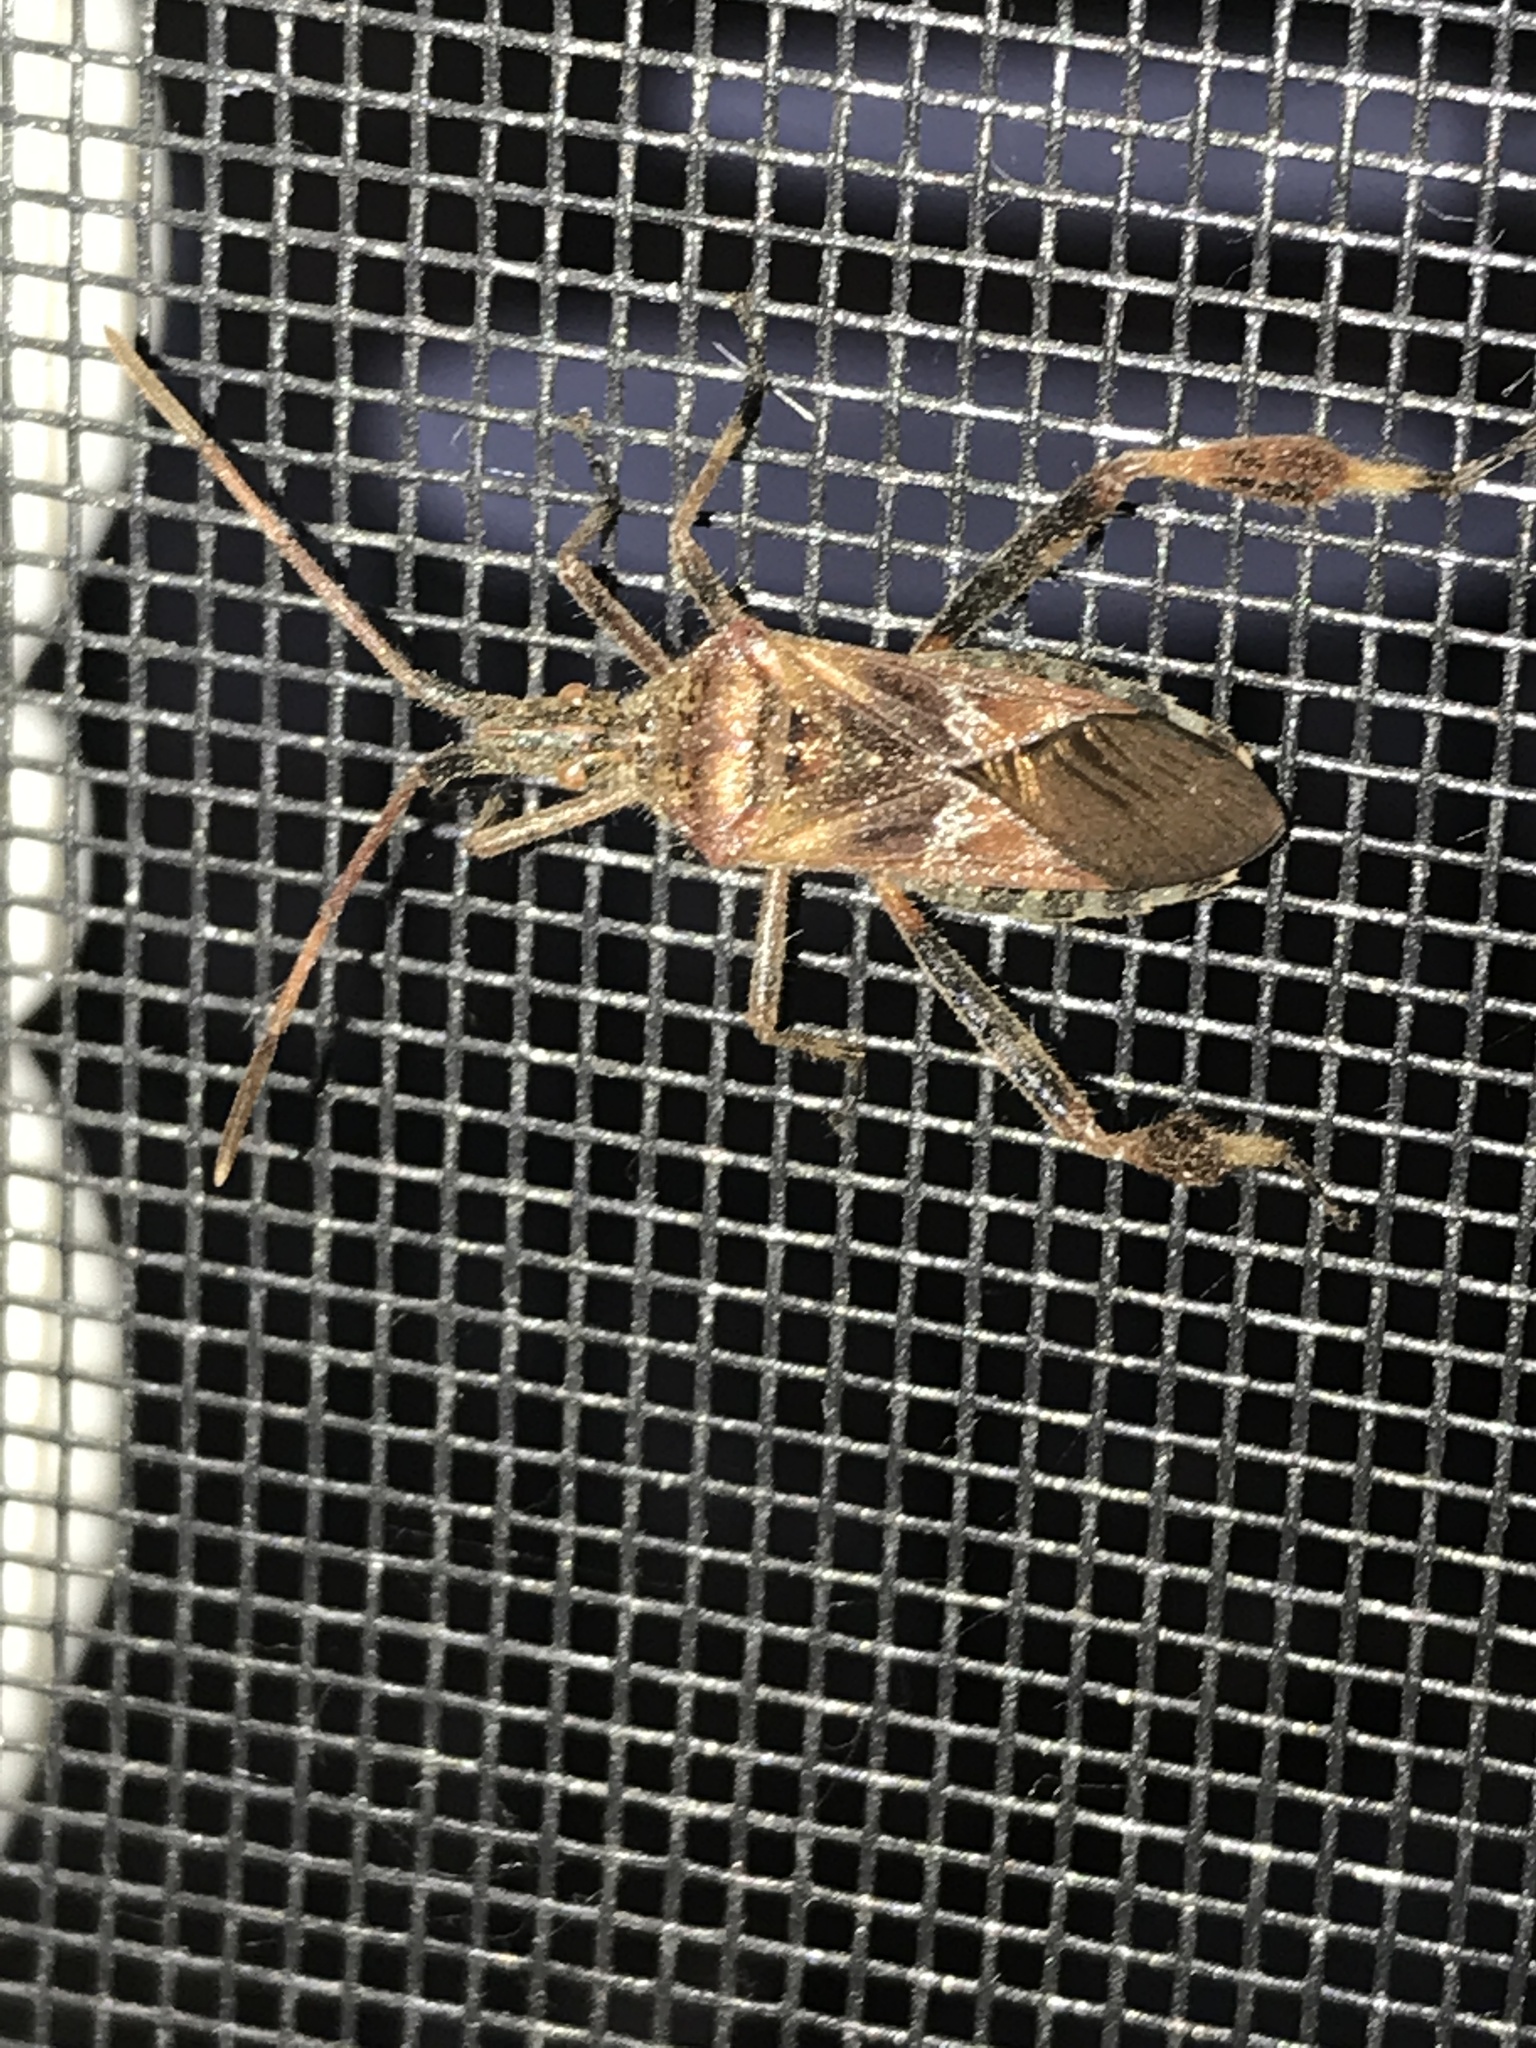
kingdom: Animalia
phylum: Arthropoda
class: Insecta
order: Hemiptera
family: Coreidae
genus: Leptoglossus
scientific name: Leptoglossus occidentalis
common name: Western conifer-seed bug
